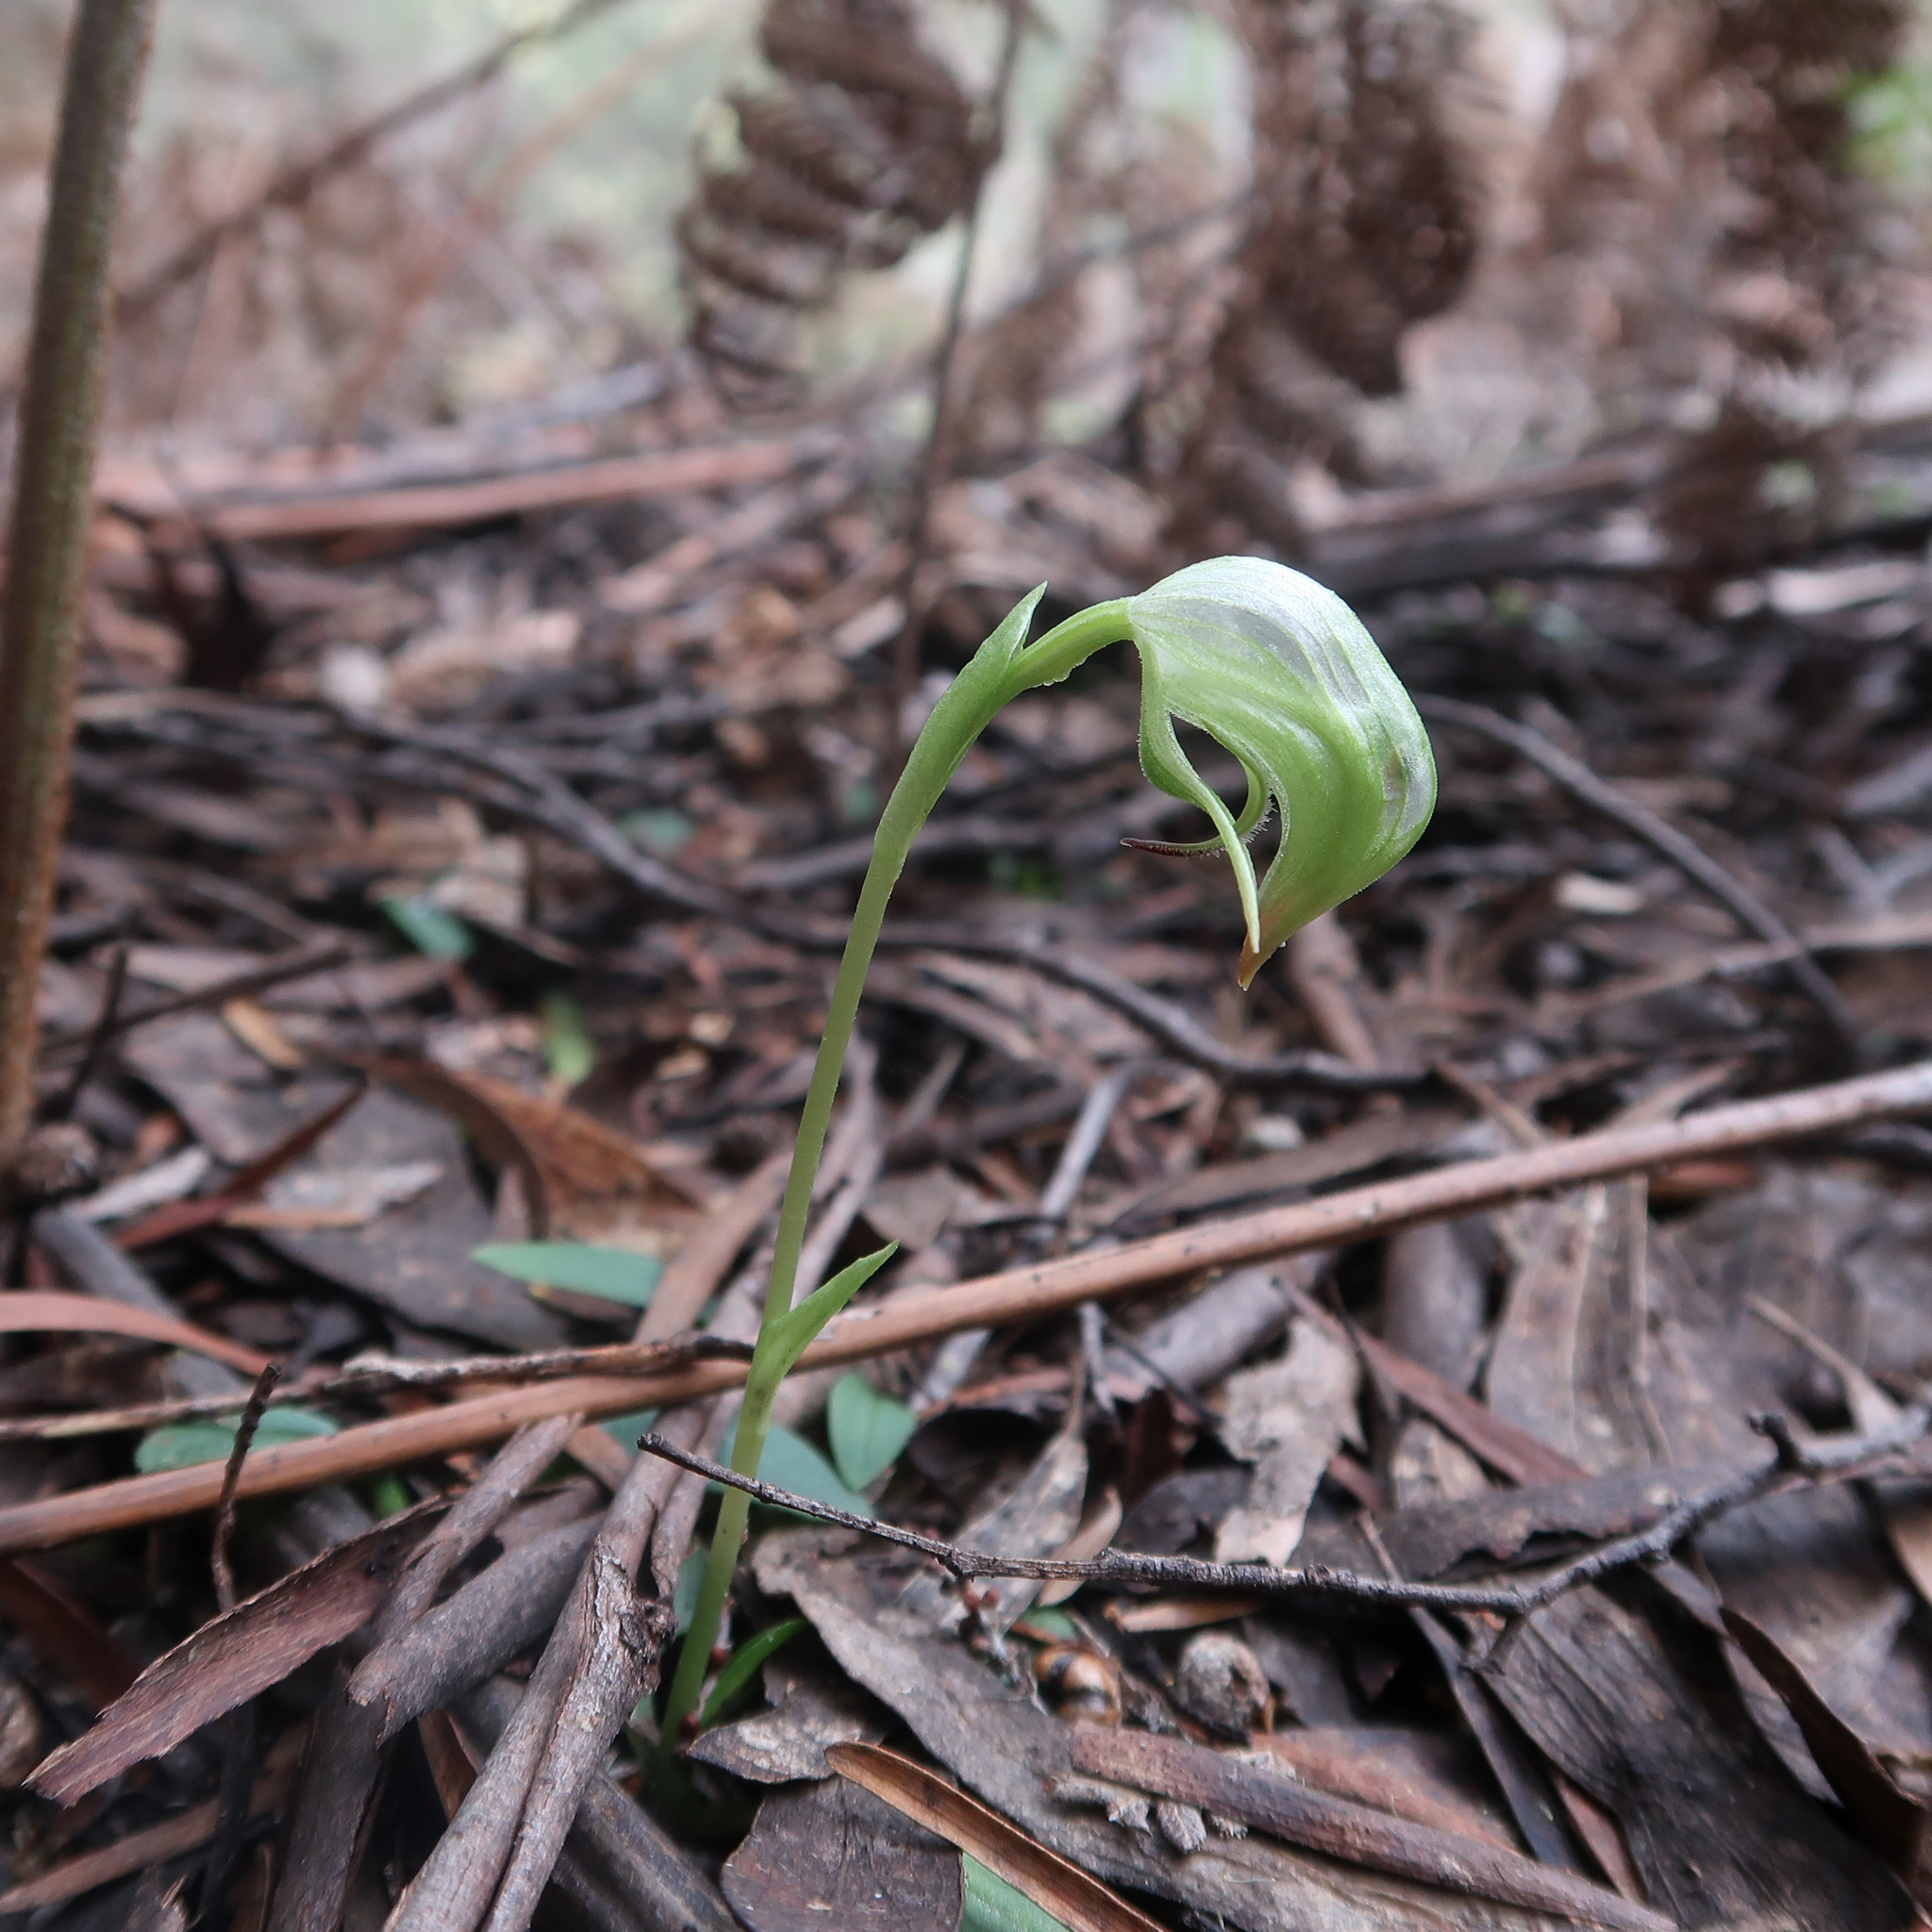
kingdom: Plantae
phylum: Tracheophyta
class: Liliopsida
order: Asparagales
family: Orchidaceae
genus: Pterostylis
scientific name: Pterostylis nutans
